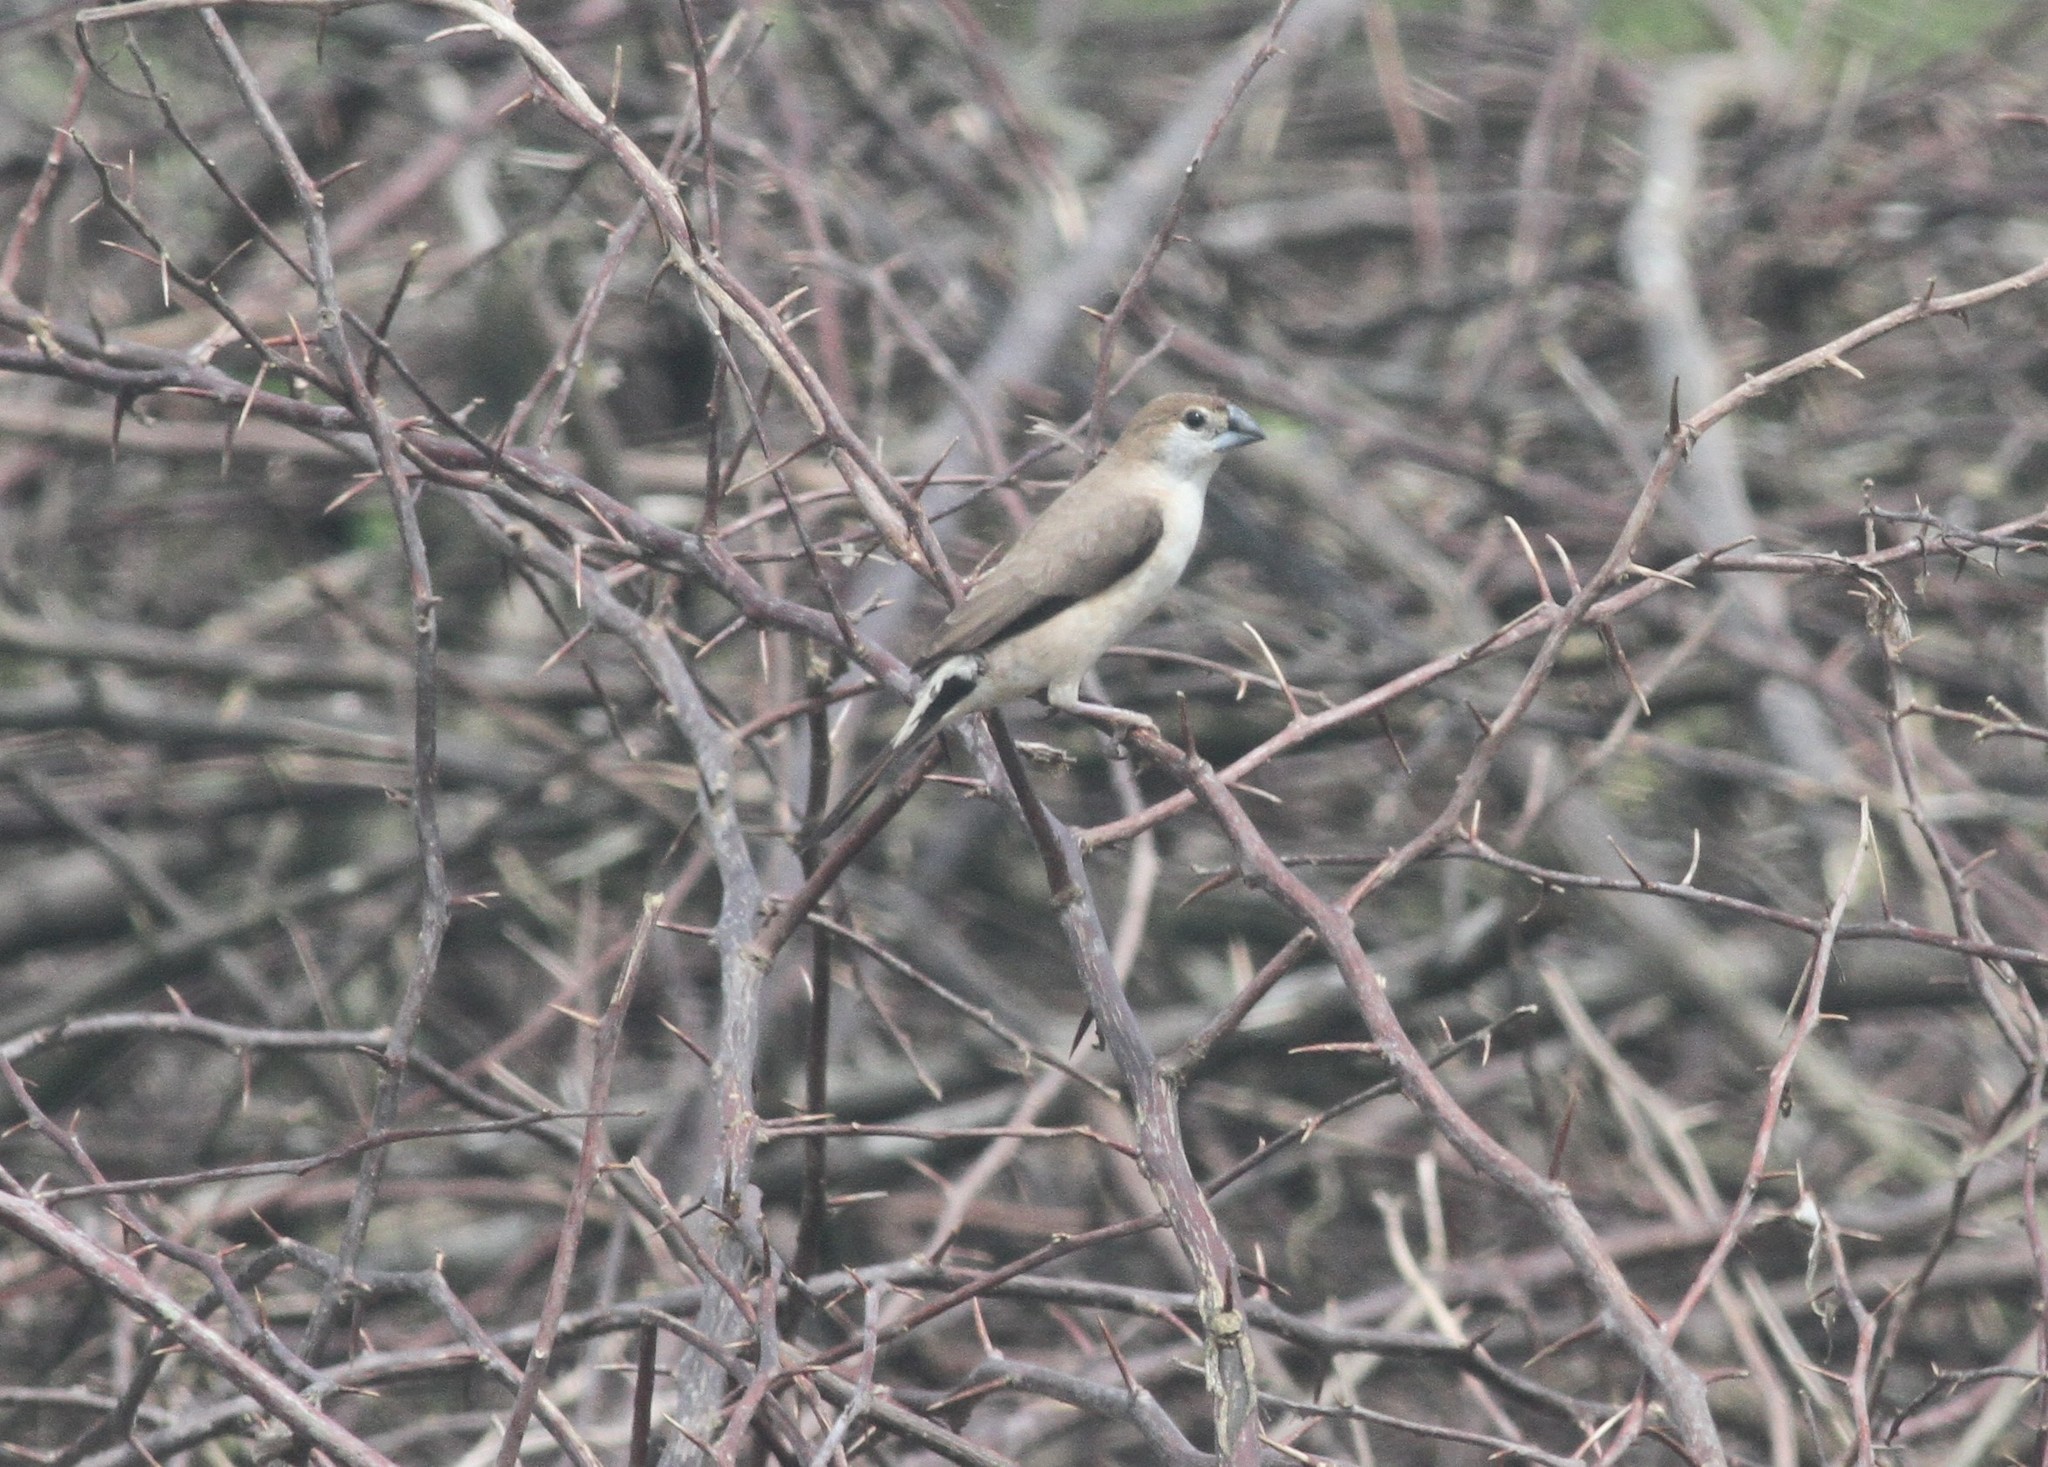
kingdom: Animalia
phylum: Chordata
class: Aves
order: Passeriformes
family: Estrildidae
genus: Euodice
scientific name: Euodice malabarica
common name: Indian silverbill
